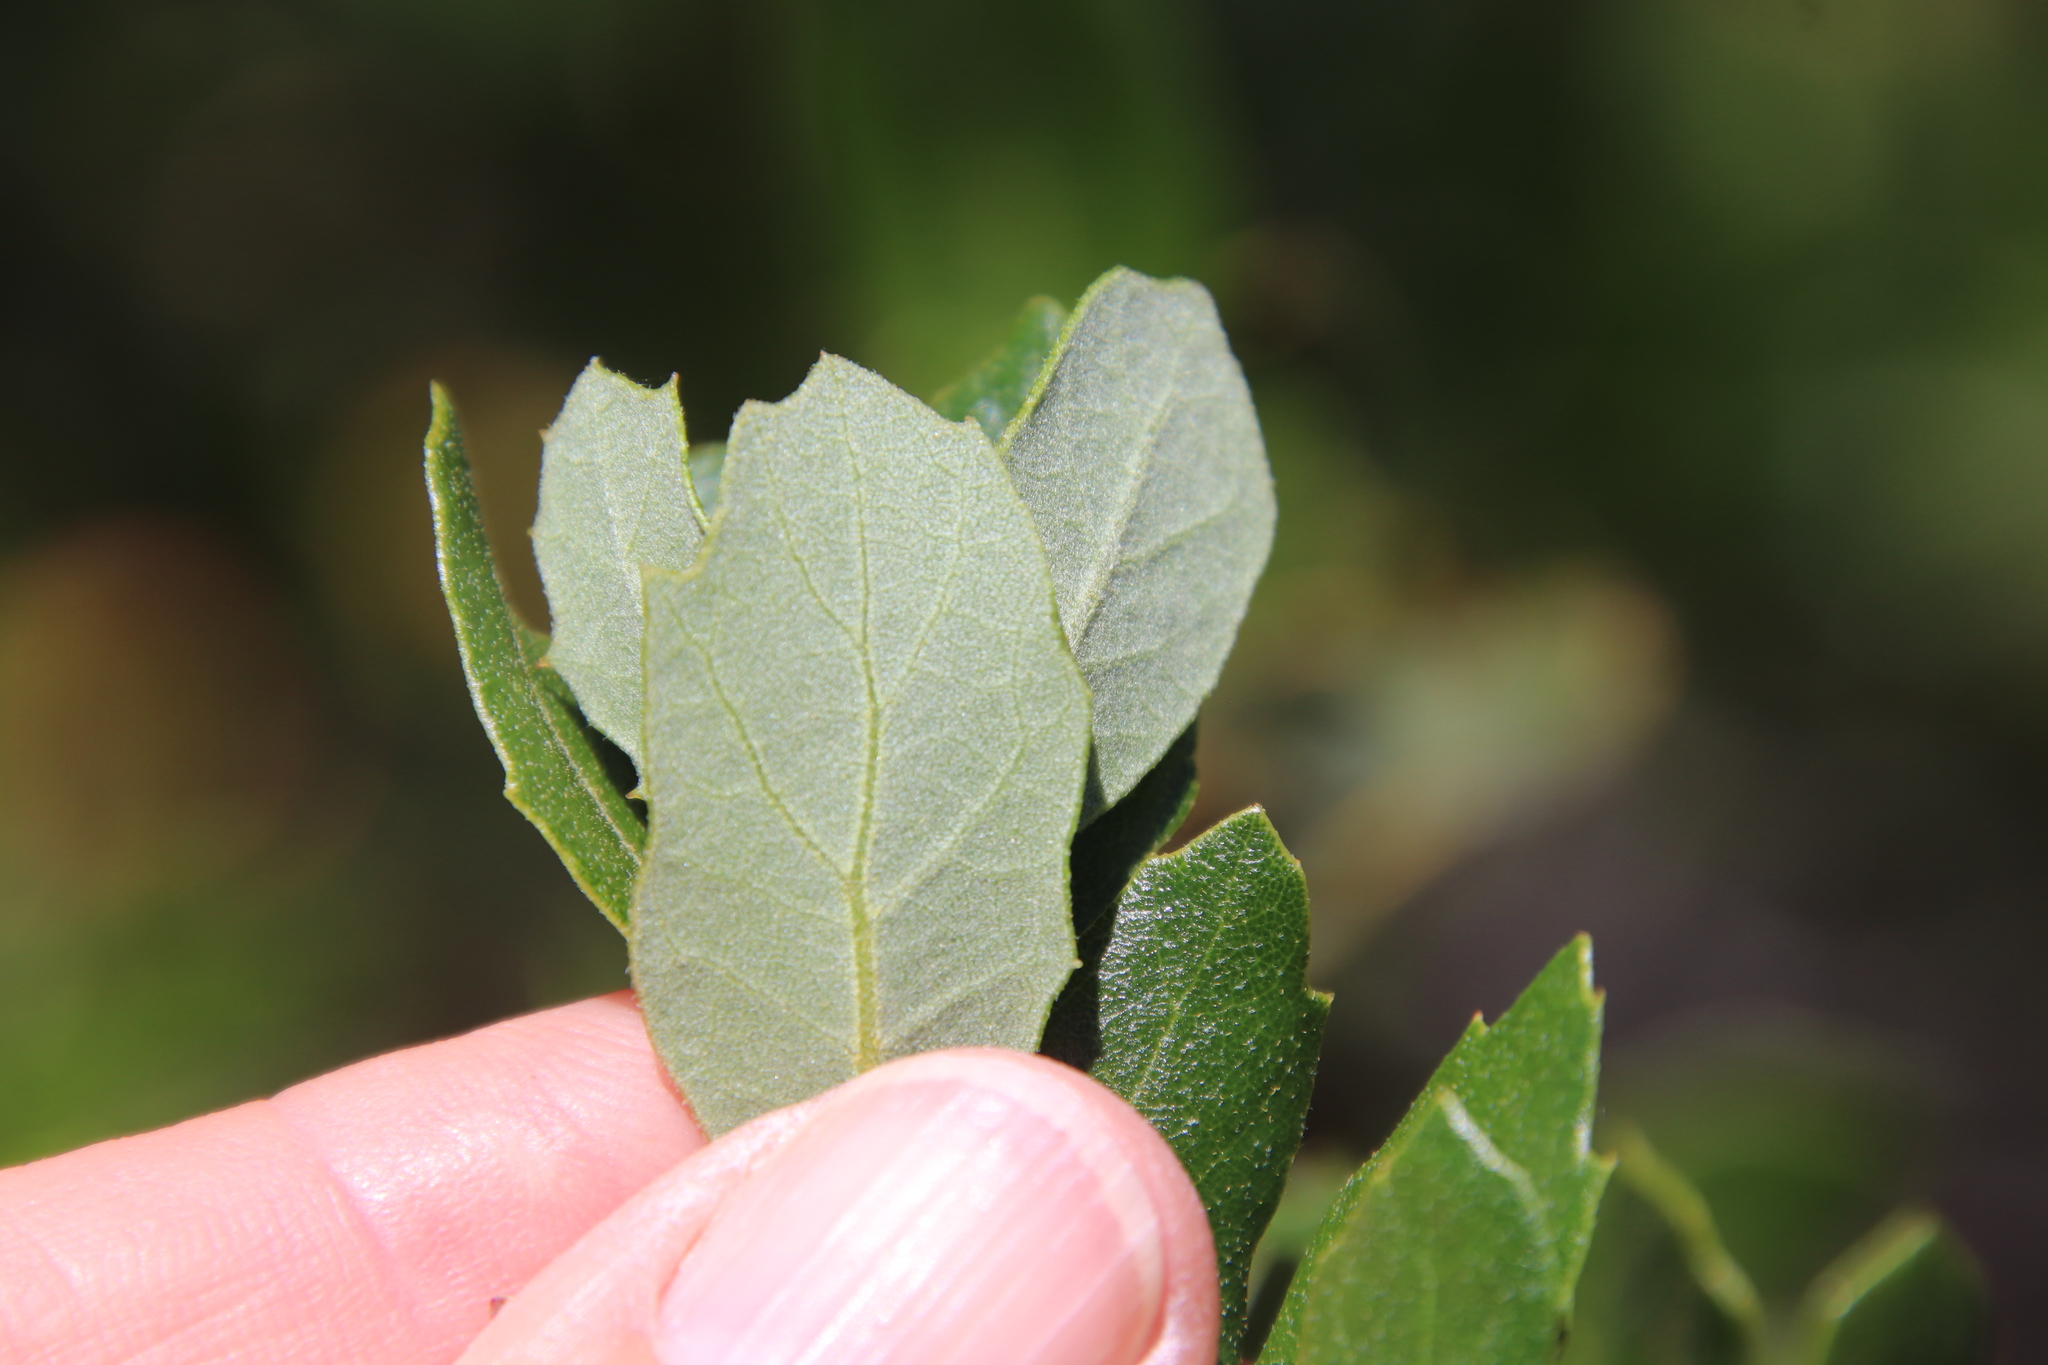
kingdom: Plantae
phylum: Tracheophyta
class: Magnoliopsida
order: Fagales
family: Fagaceae
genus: Quercus
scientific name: Quercus berberidifolia
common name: California scrub oak
